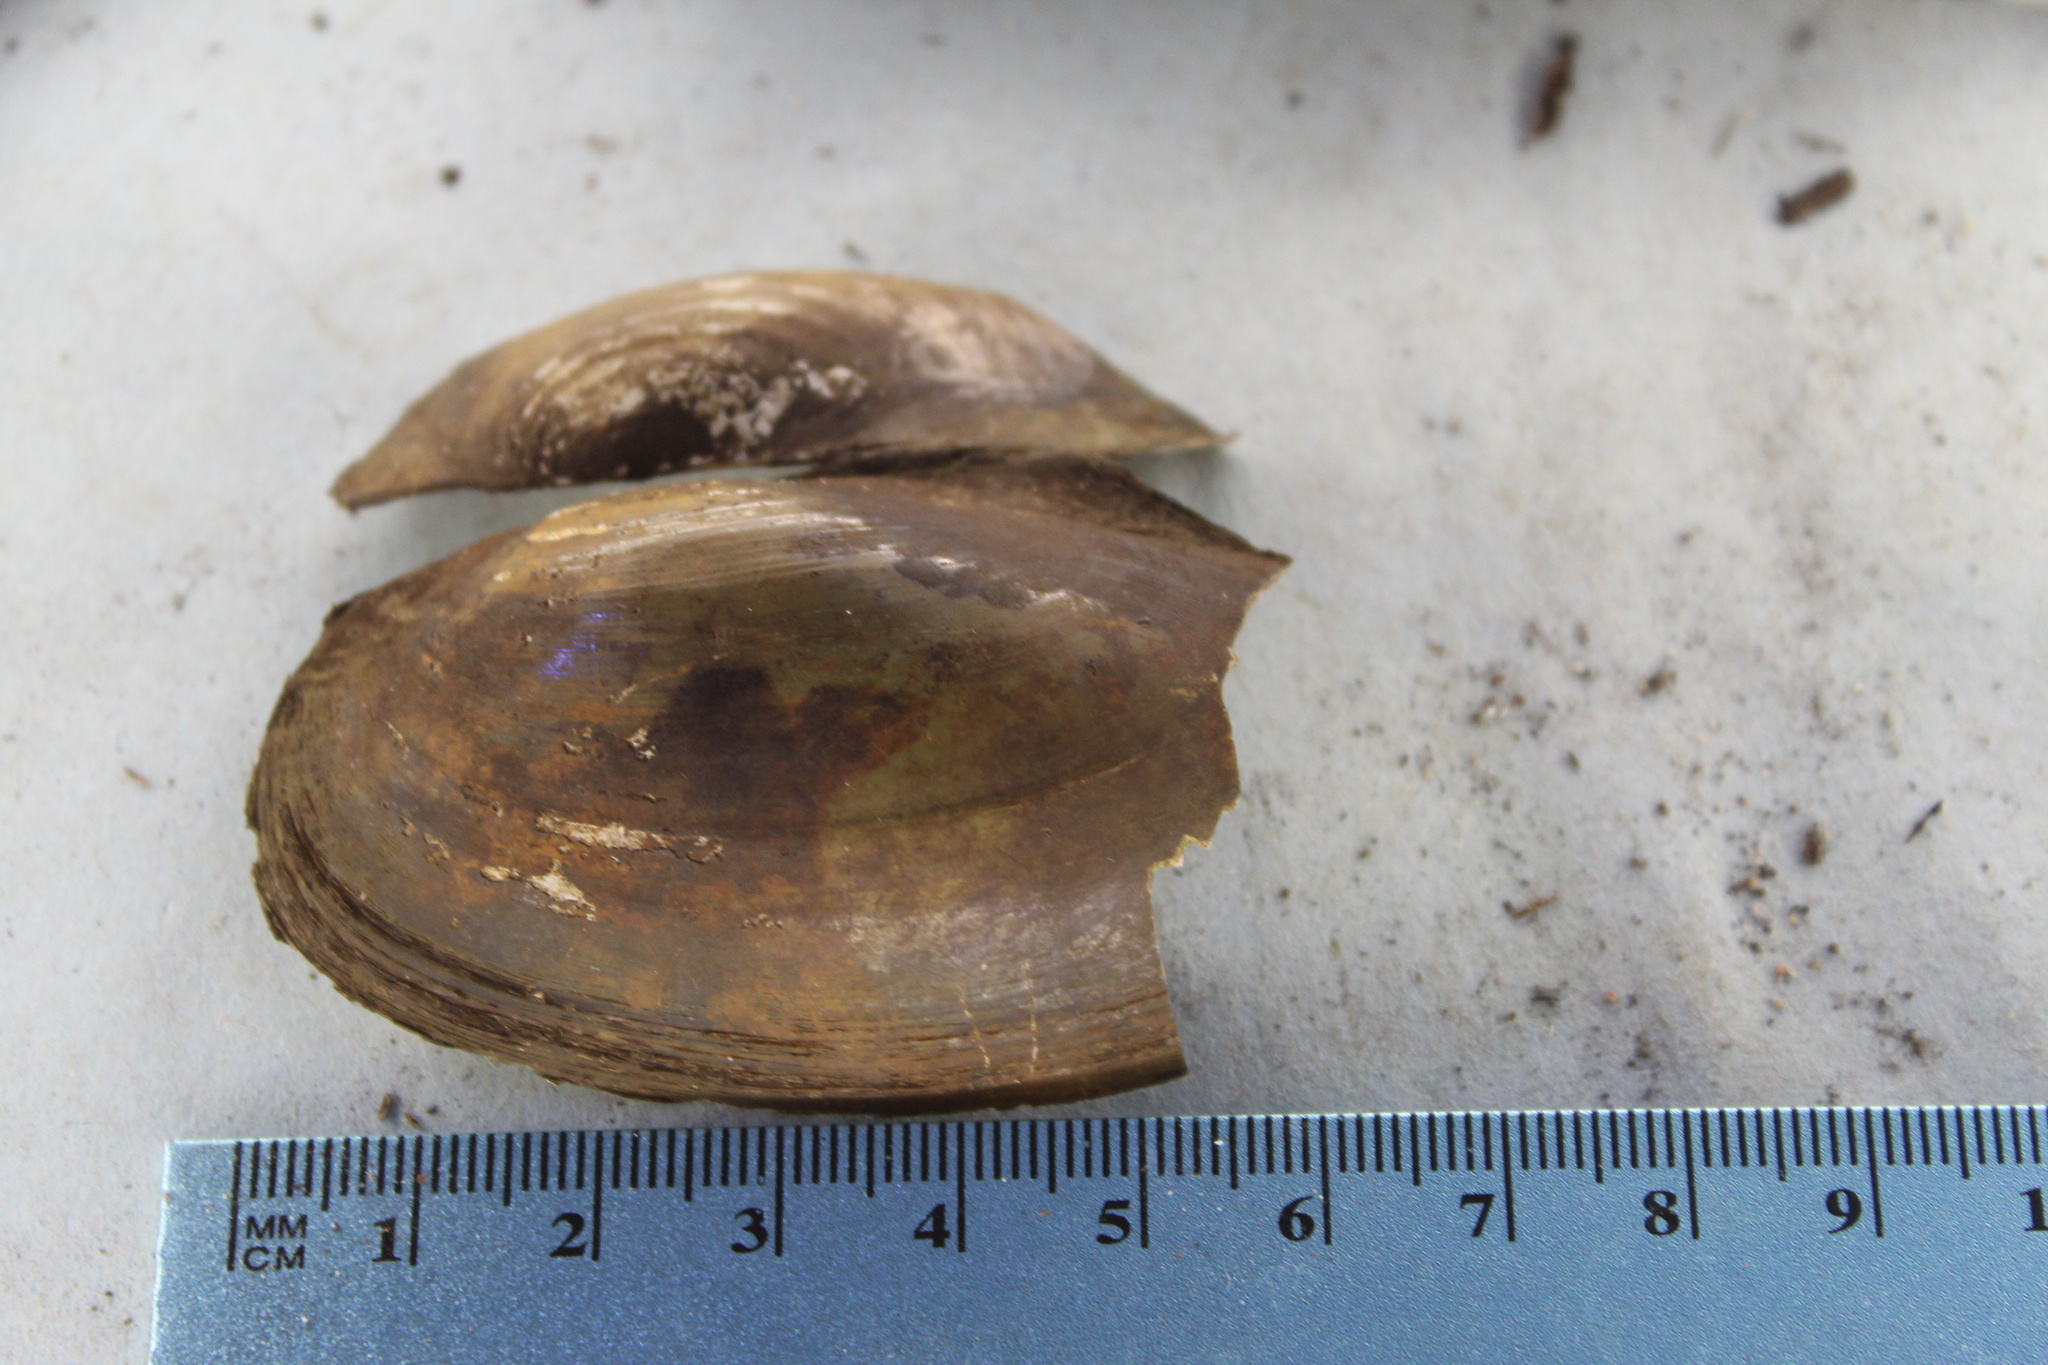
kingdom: Animalia
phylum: Mollusca
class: Bivalvia
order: Unionida
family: Unionidae
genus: Utterbackia
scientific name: Utterbackia imbecillis
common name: Paper pondshell
